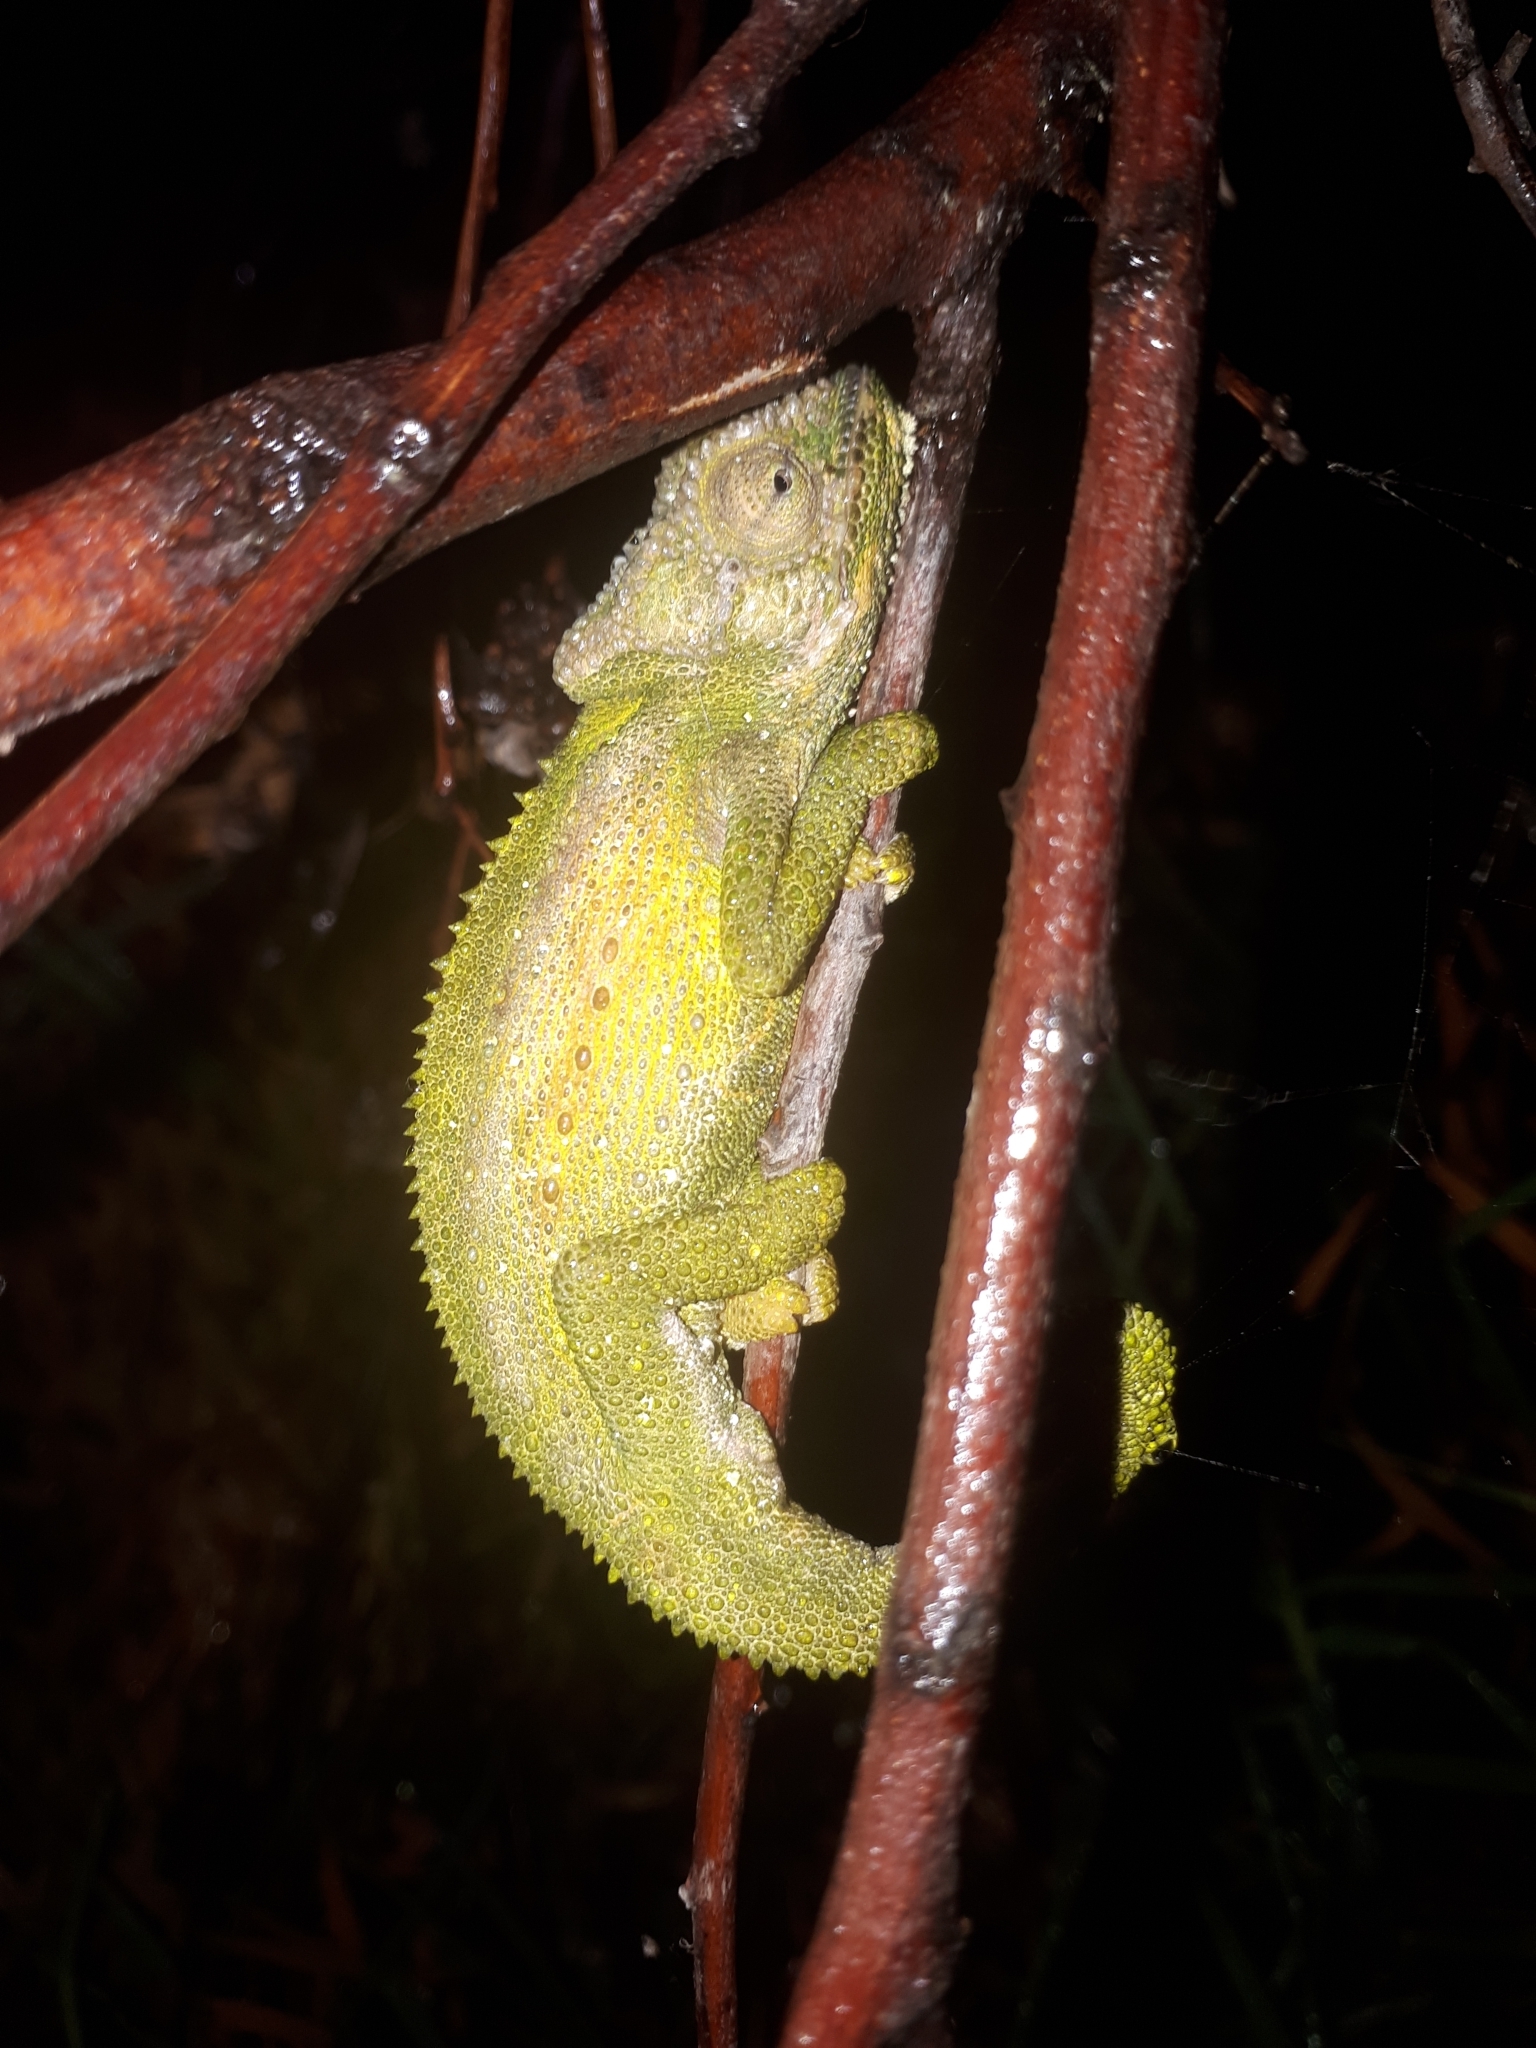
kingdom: Animalia
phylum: Chordata
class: Squamata
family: Chamaeleonidae
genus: Bradypodion
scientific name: Bradypodion pumilum
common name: Cape dwarf chameleon
